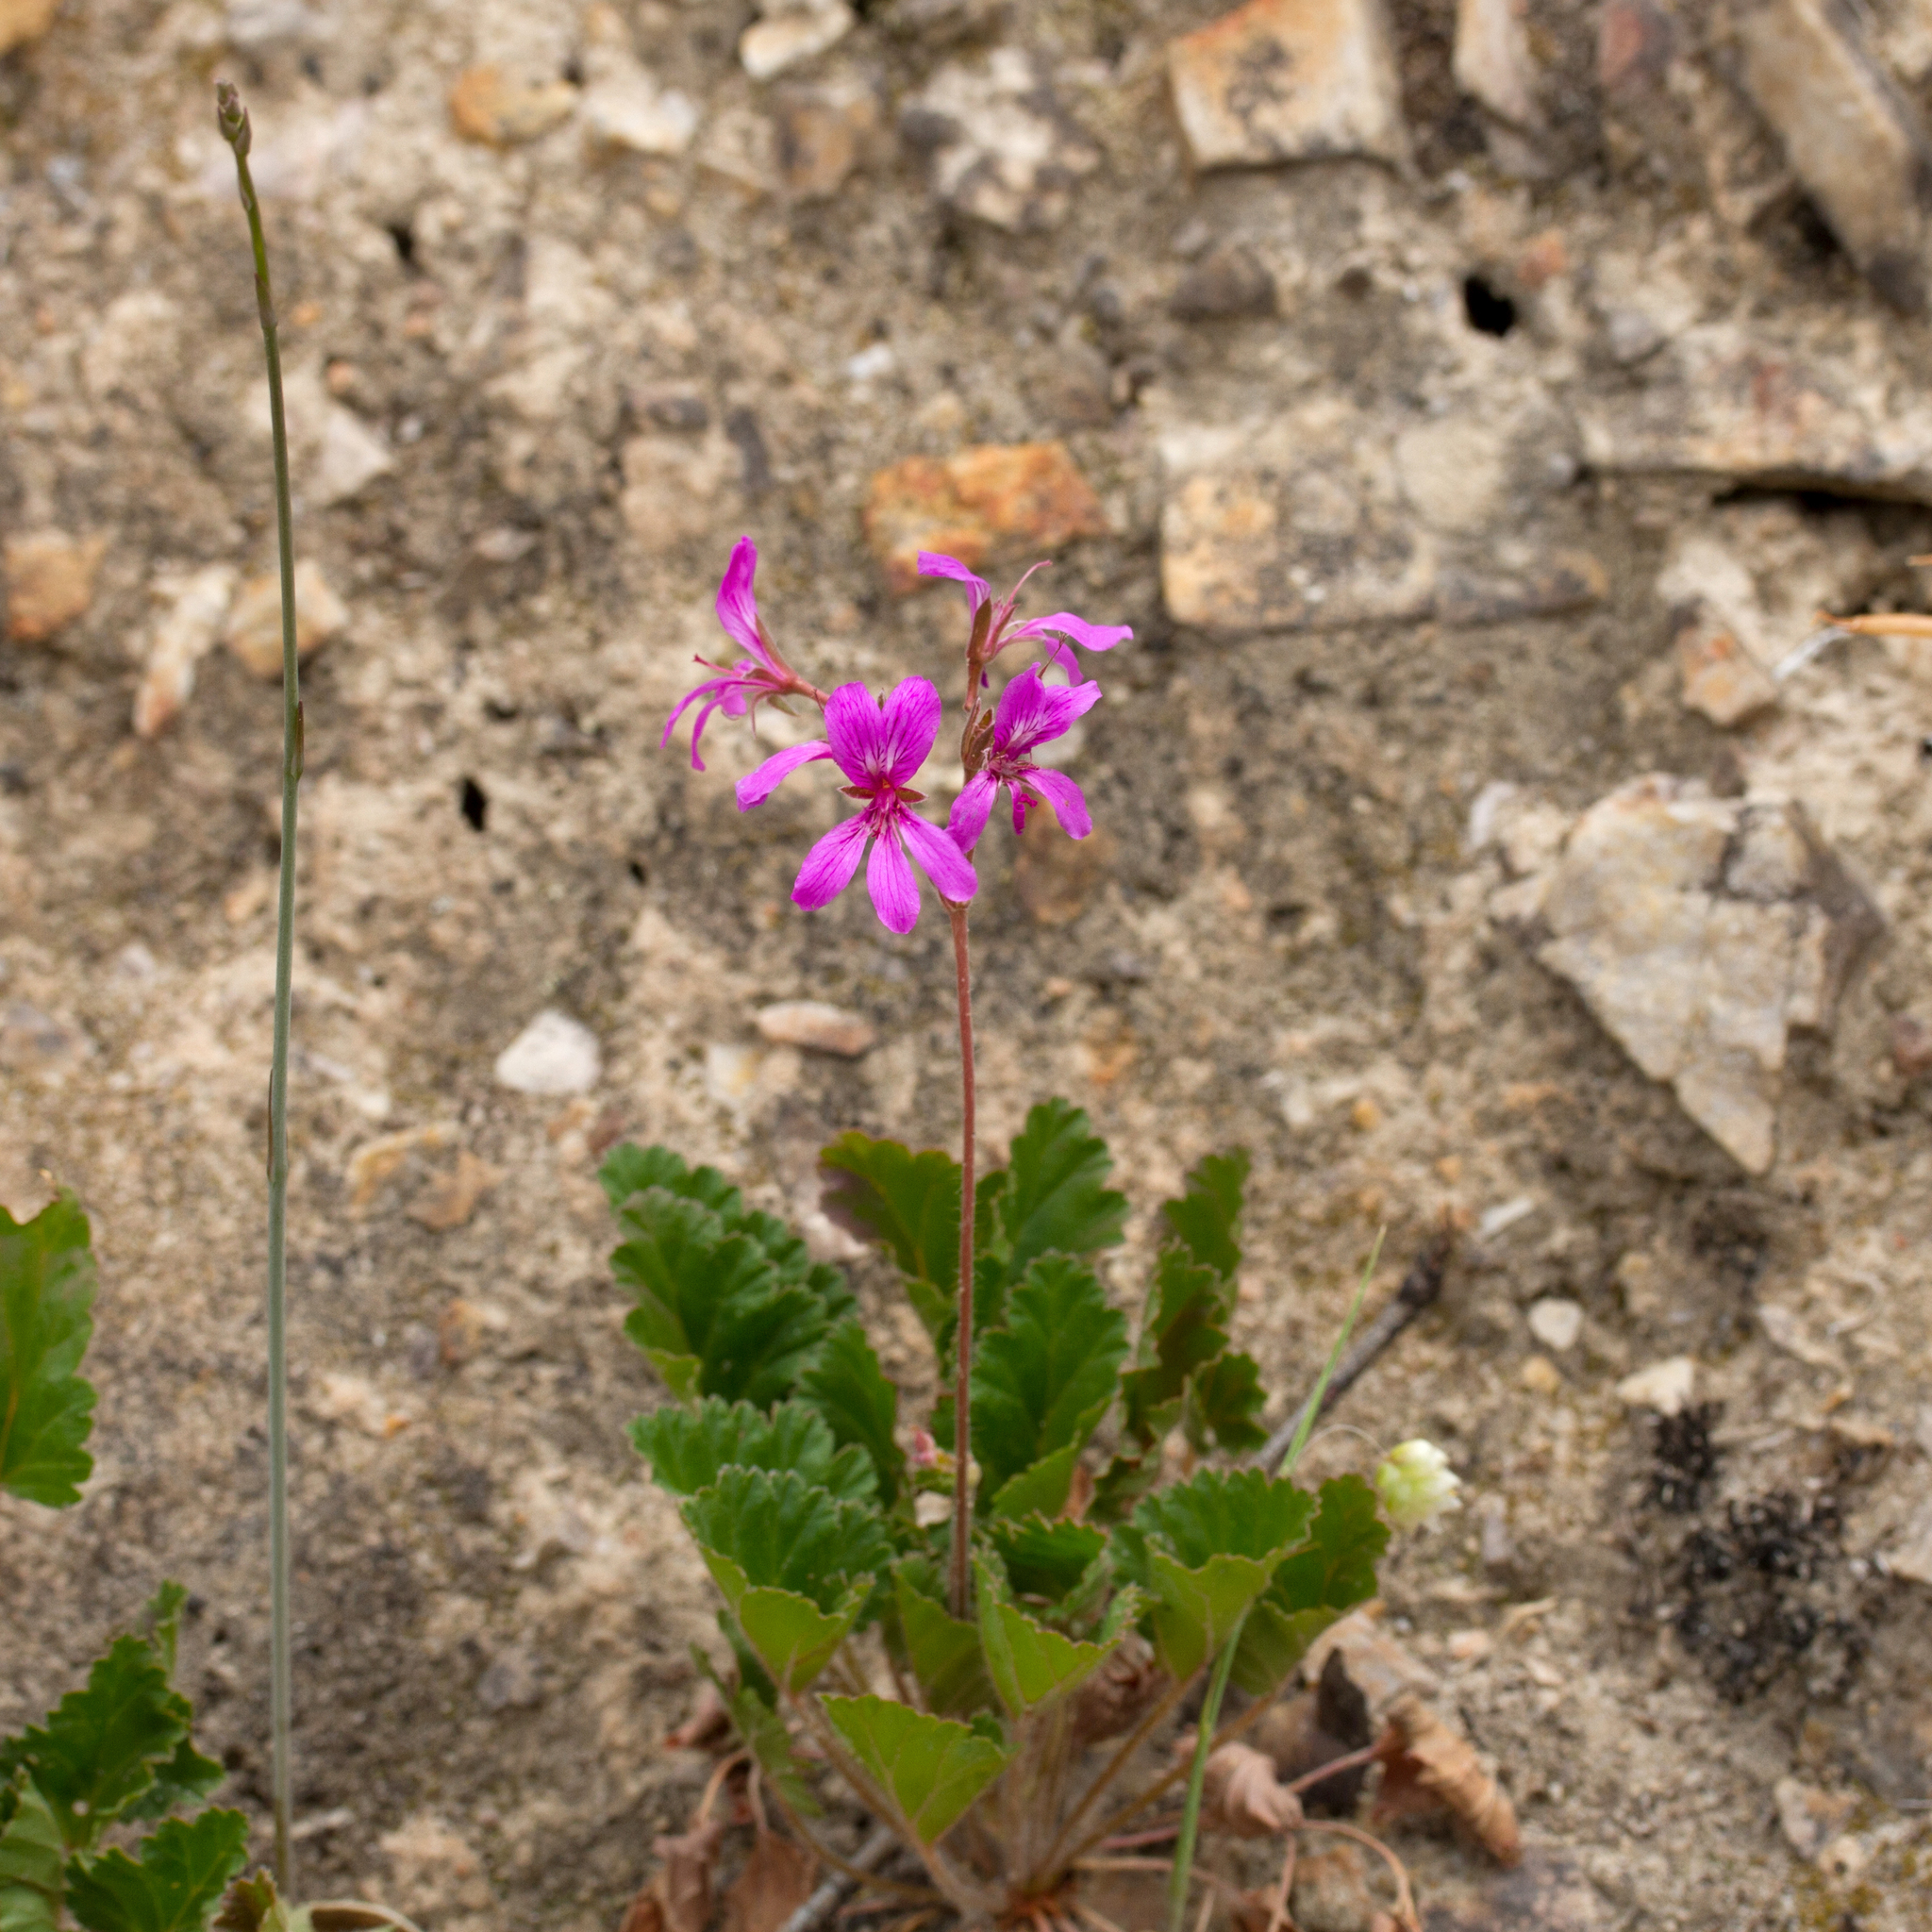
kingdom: Plantae
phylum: Tracheophyta
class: Magnoliopsida
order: Geraniales
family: Geraniaceae
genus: Pelargonium
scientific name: Pelargonium rodneyanum
